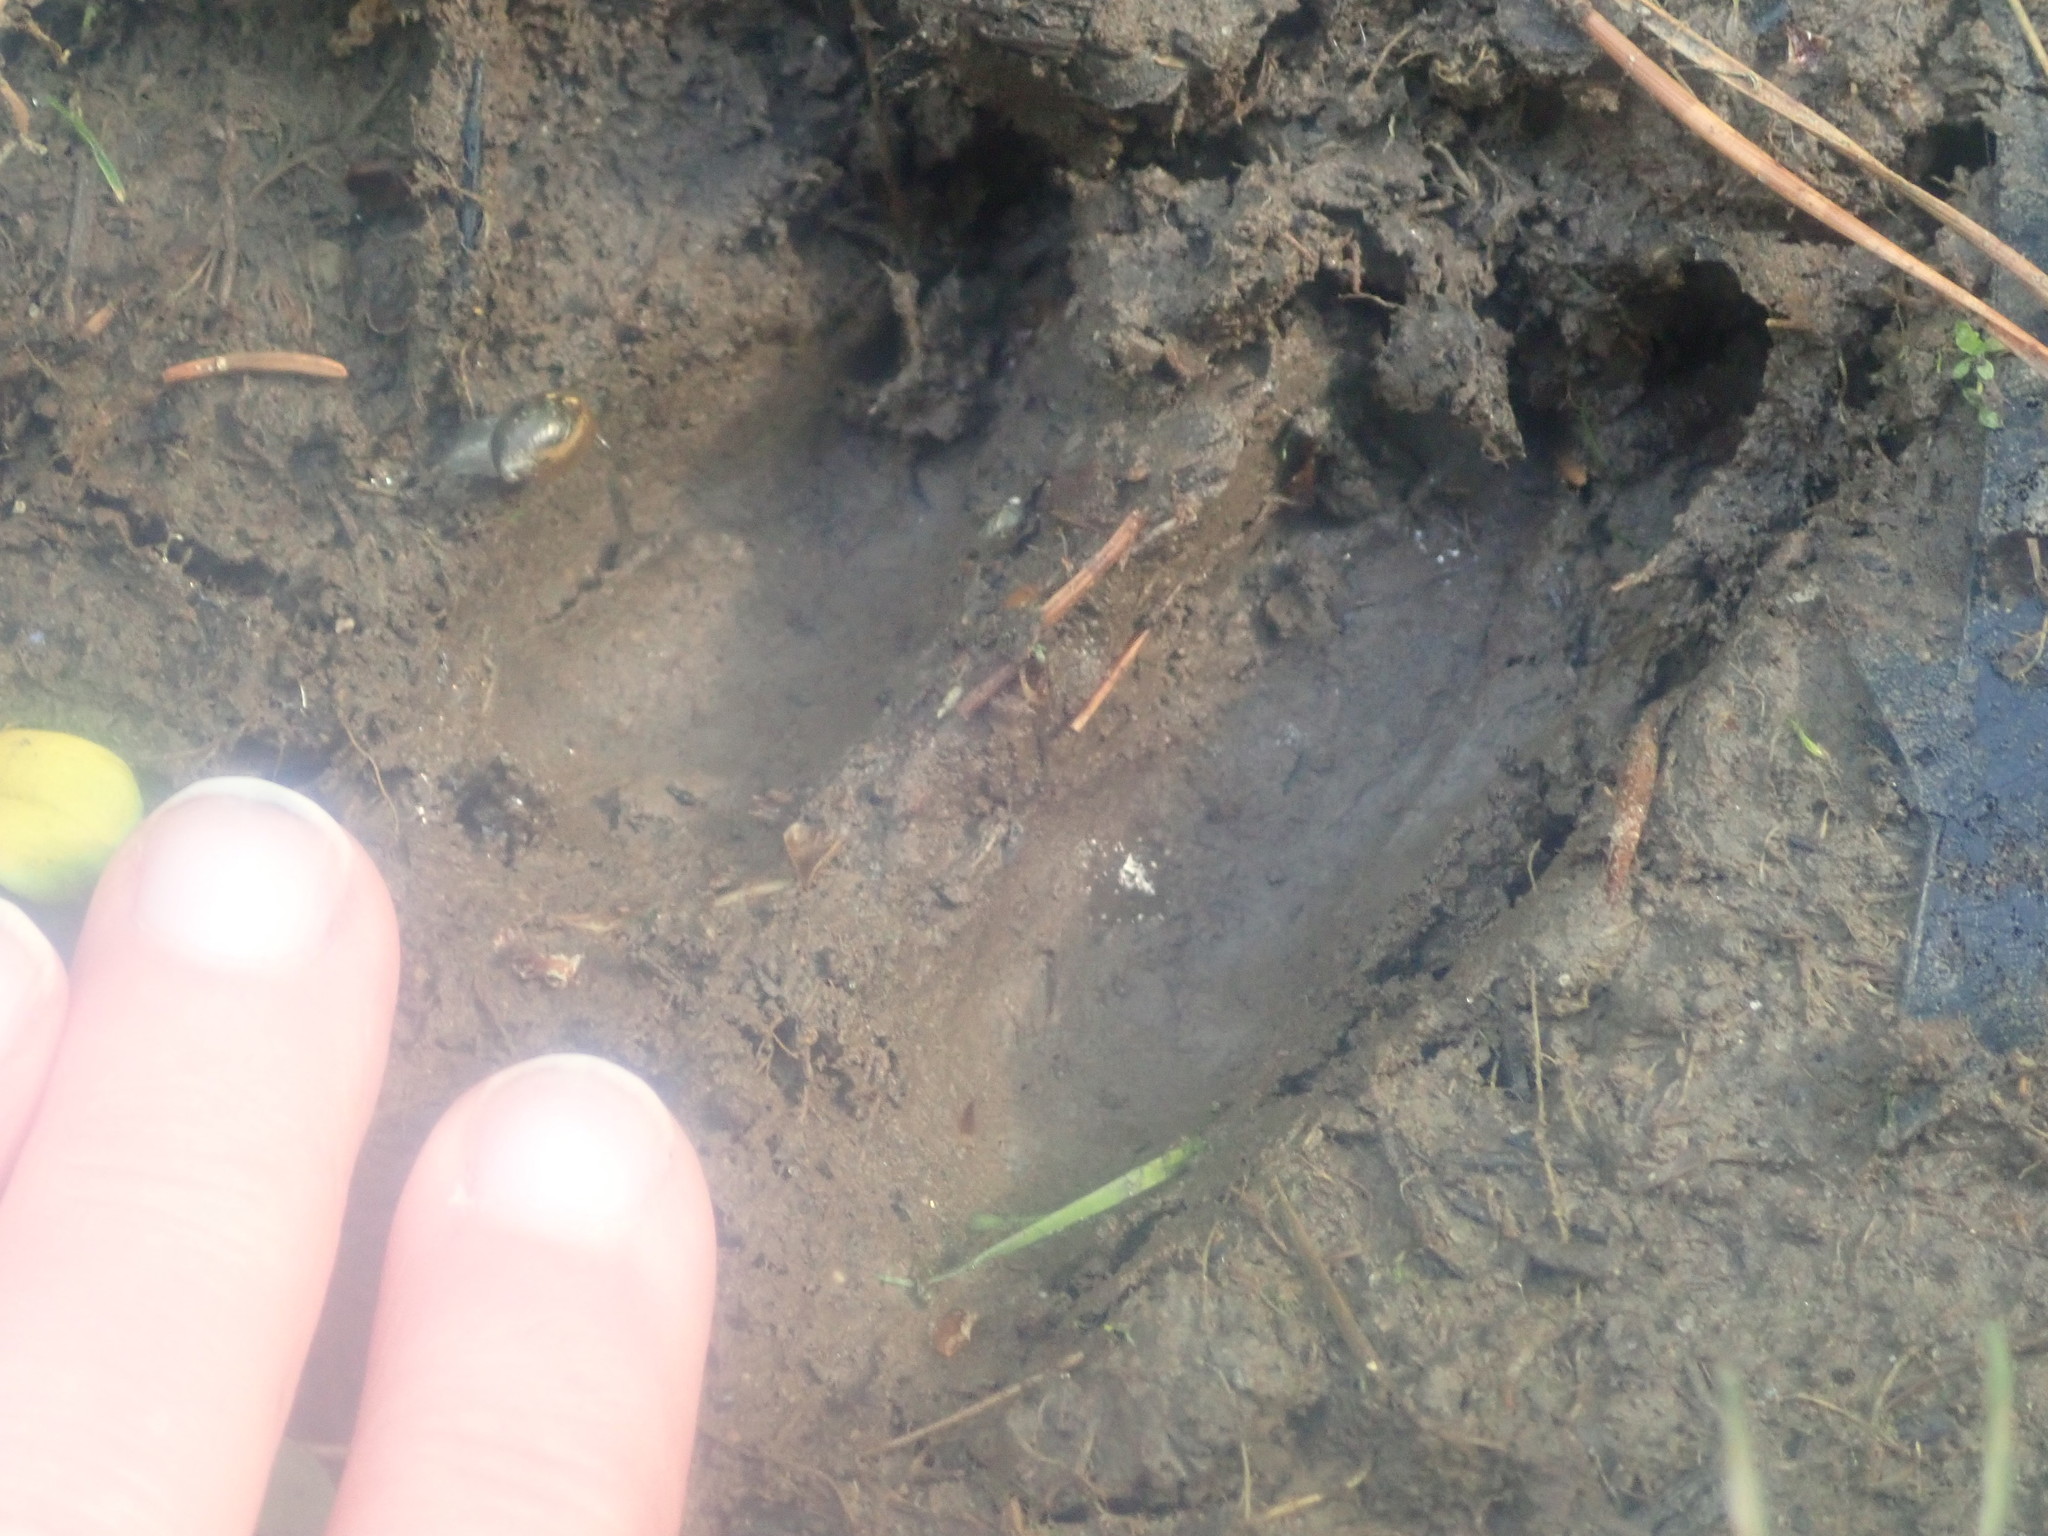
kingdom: Animalia
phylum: Chordata
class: Mammalia
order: Artiodactyla
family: Cervidae
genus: Odocoileus
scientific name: Odocoileus virginianus
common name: White-tailed deer
